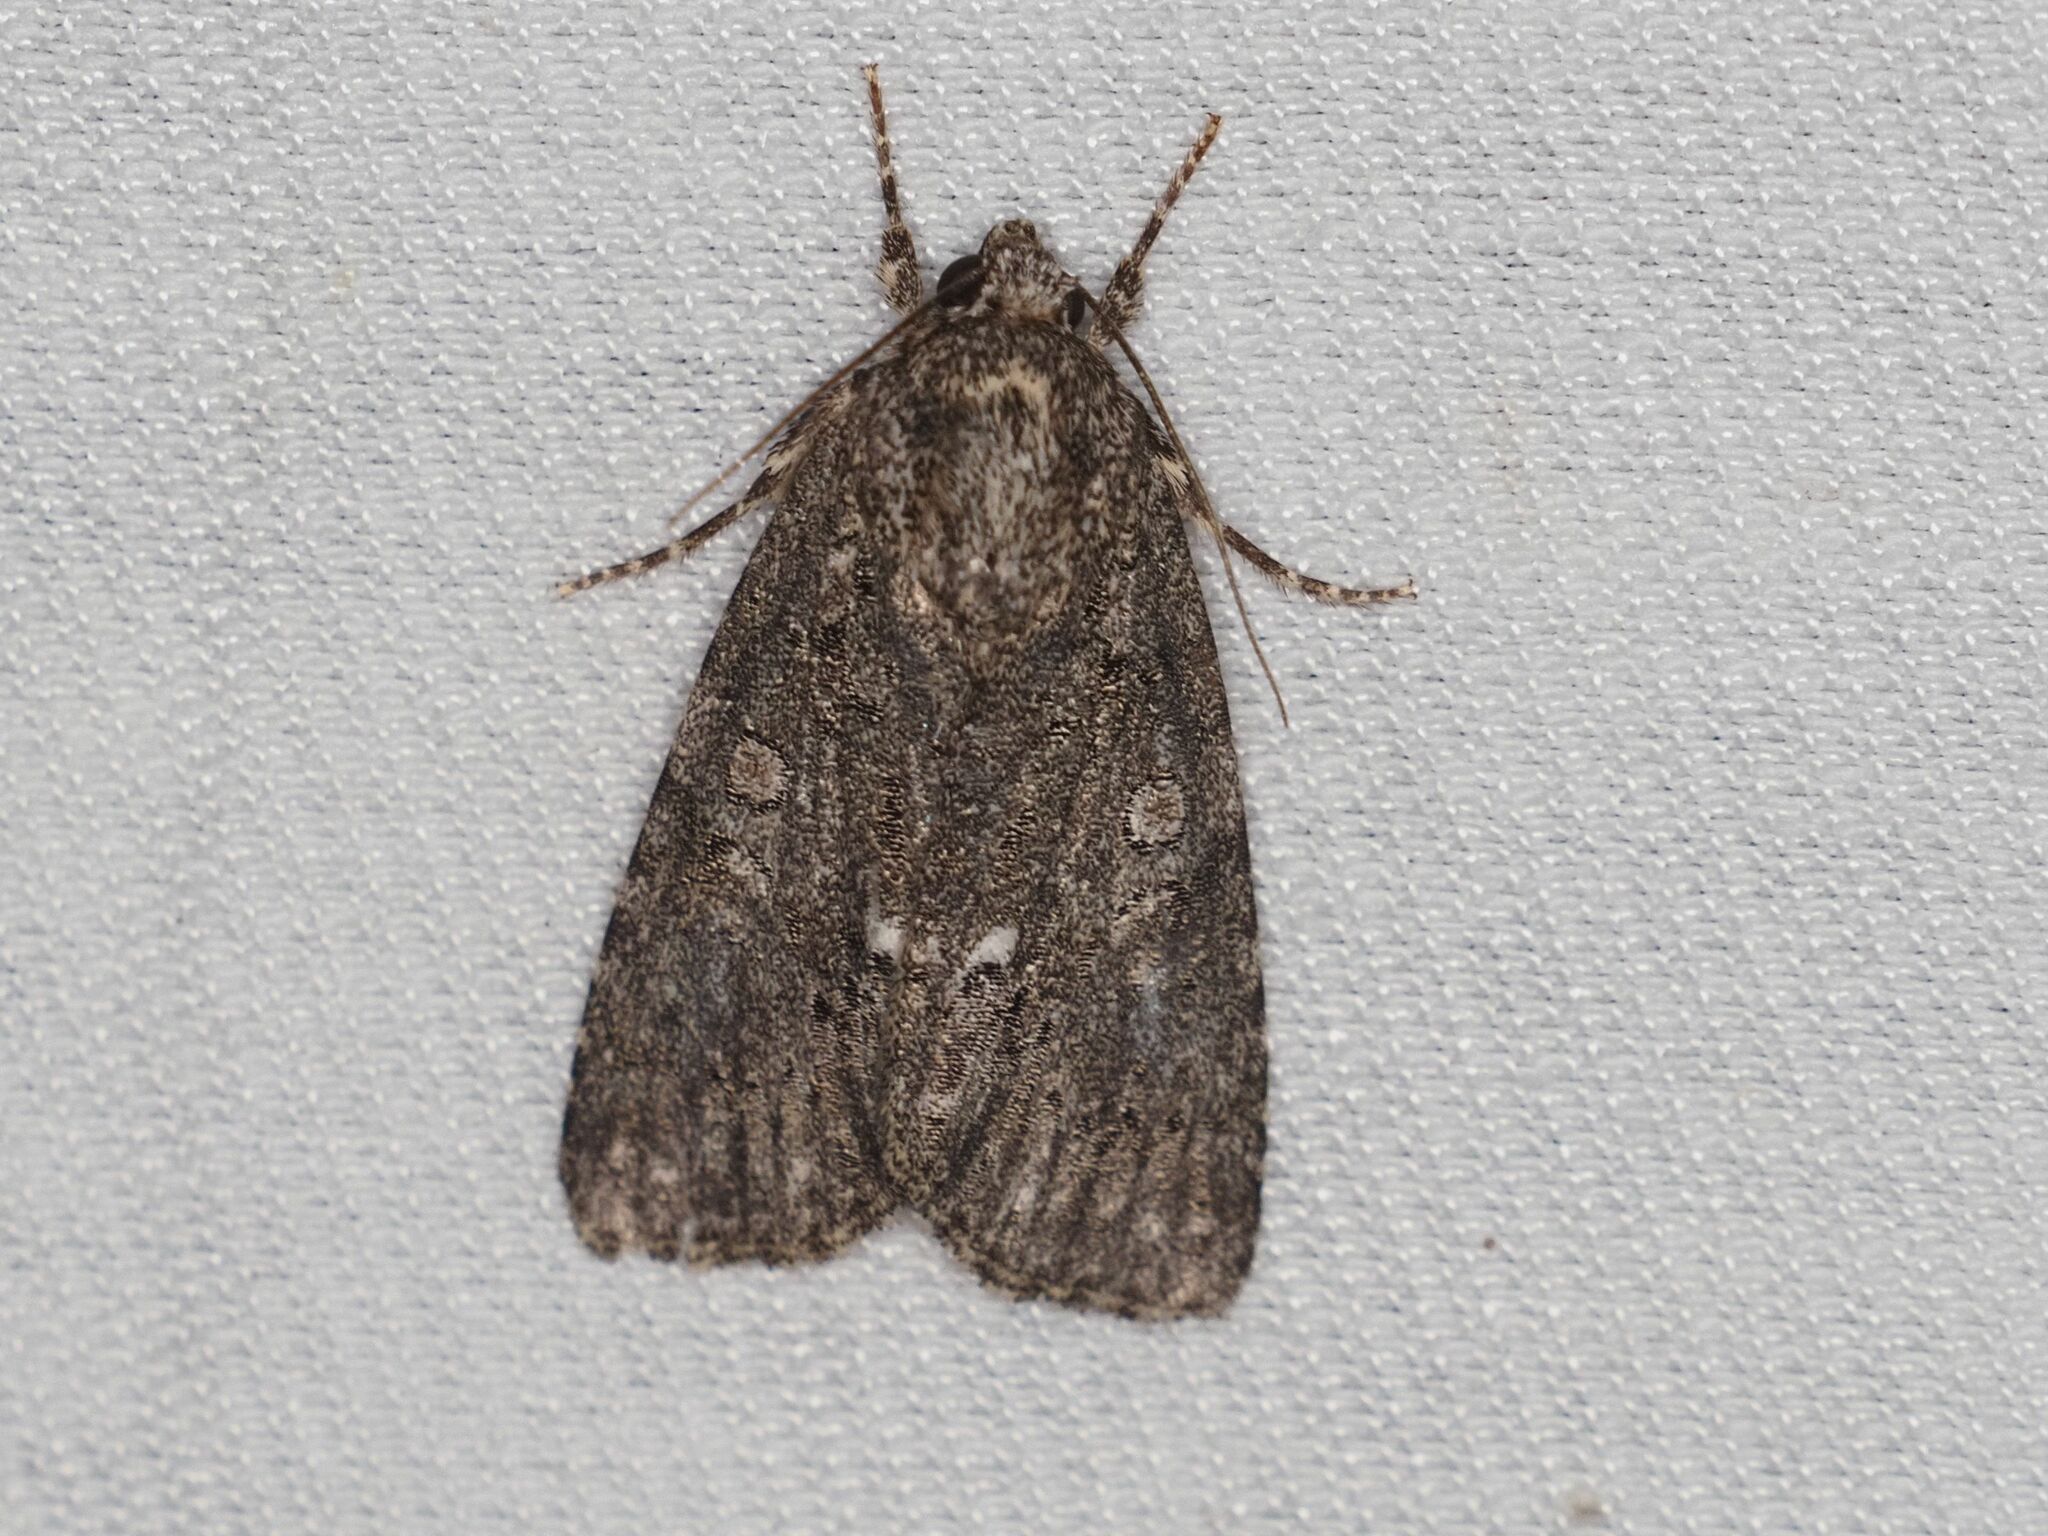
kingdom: Animalia
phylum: Arthropoda
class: Insecta
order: Lepidoptera
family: Noctuidae
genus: Acronicta
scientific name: Acronicta rumicis
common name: Knot grass
